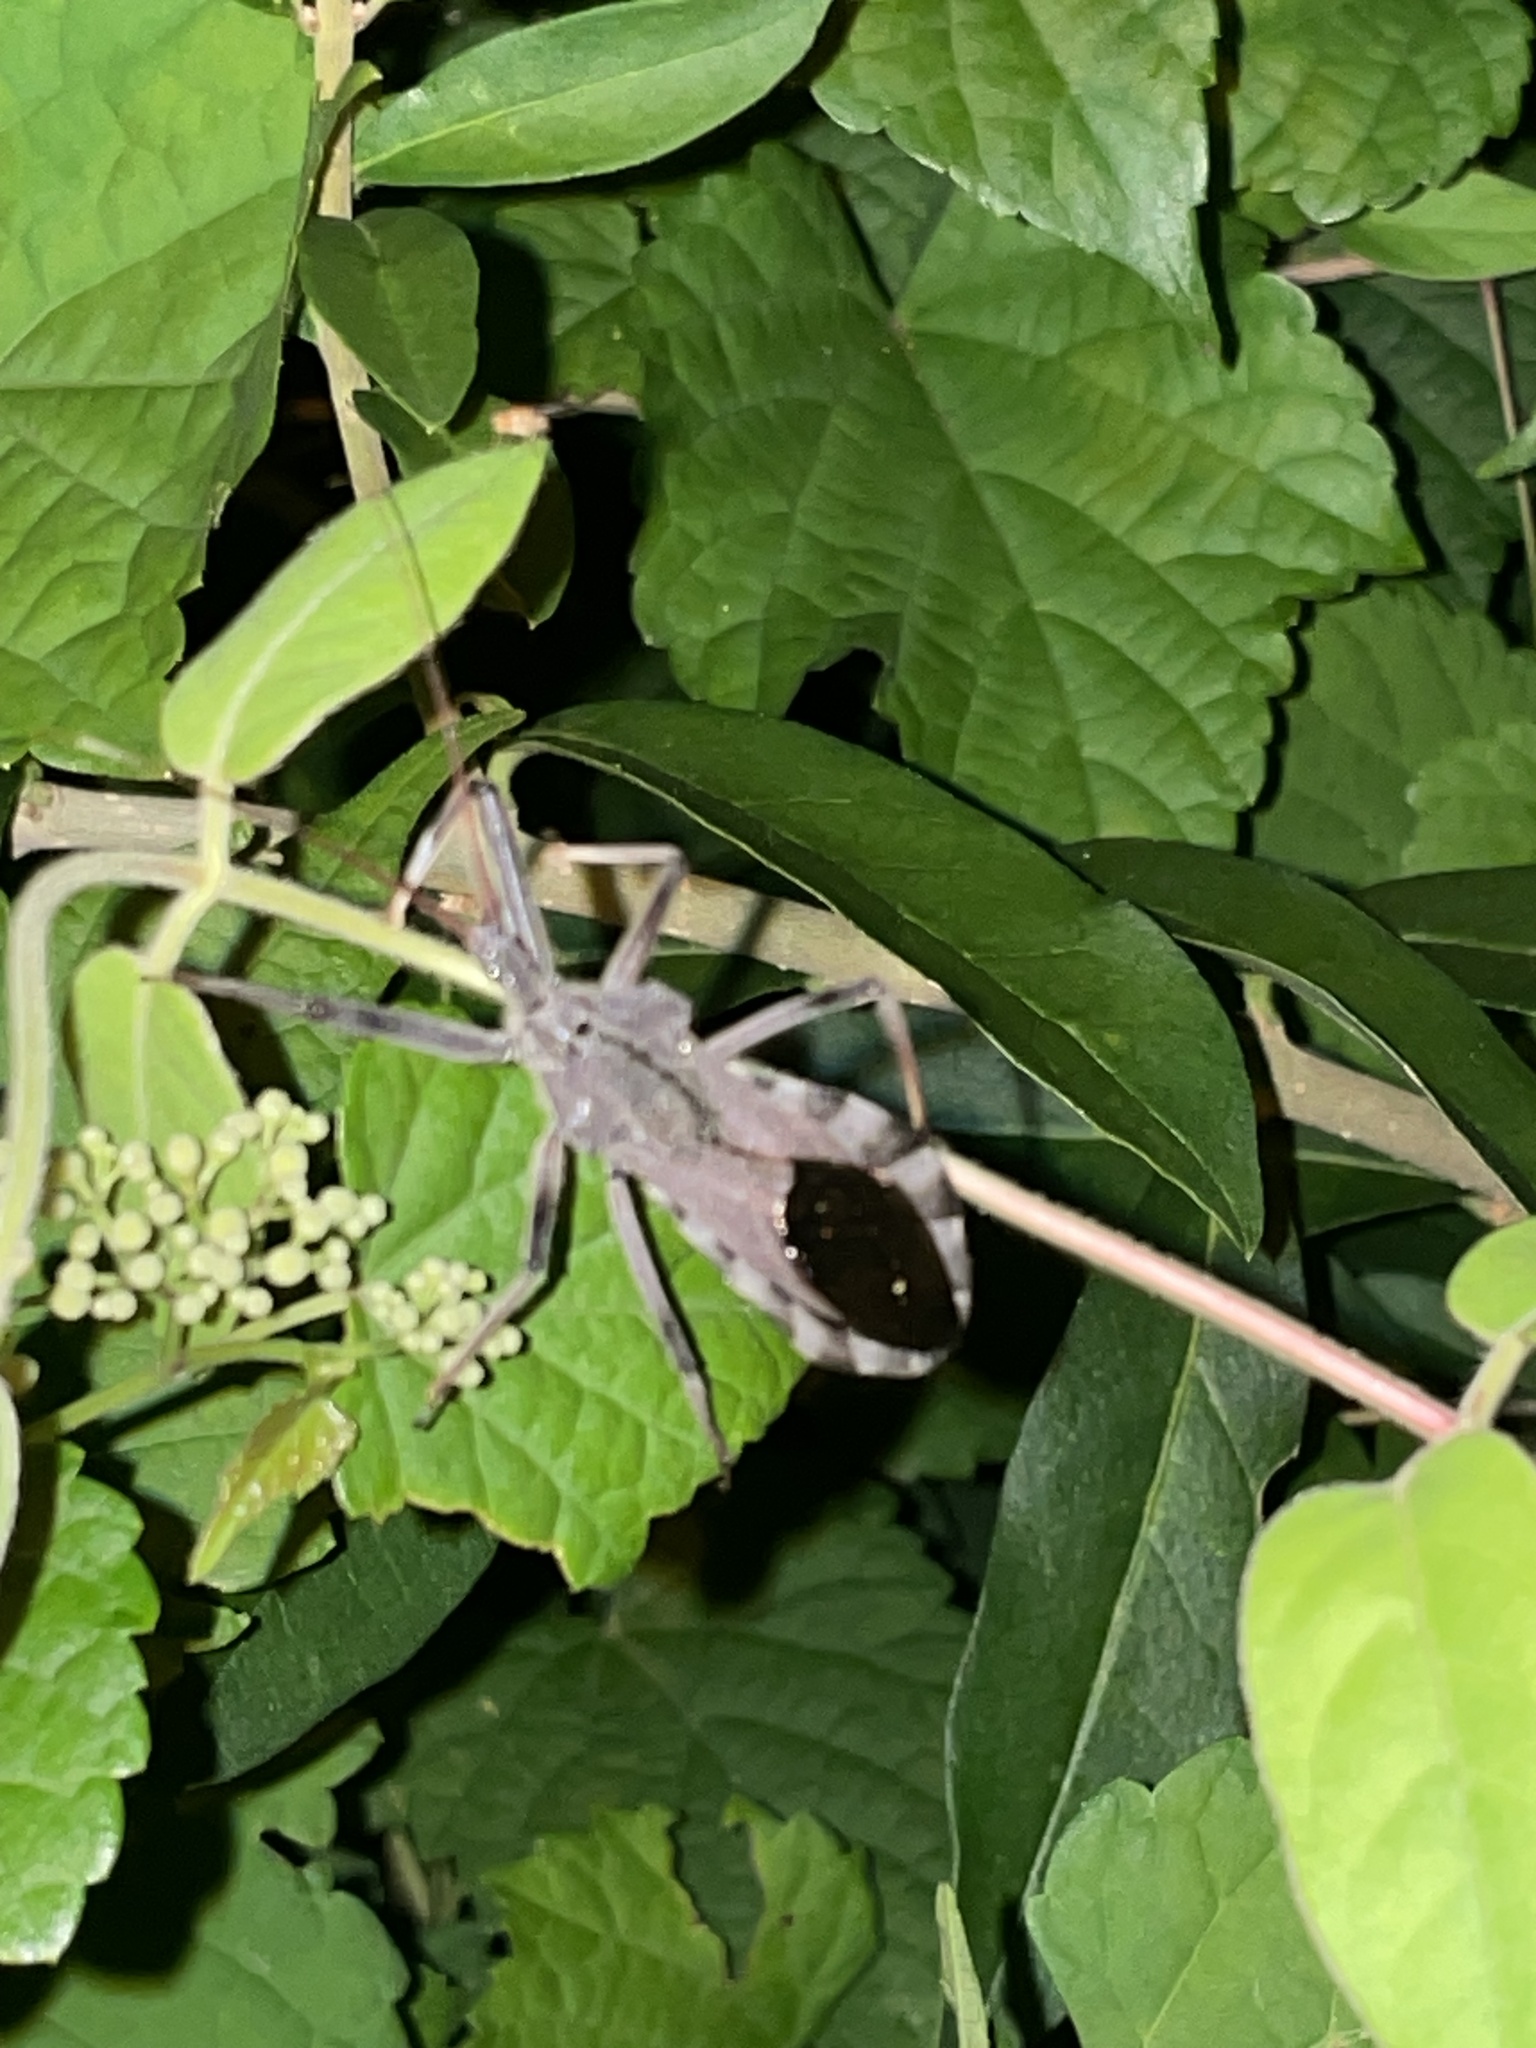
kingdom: Animalia
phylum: Arthropoda
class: Insecta
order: Hemiptera
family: Reduviidae
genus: Arilus
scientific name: Arilus cristatus
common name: North american wheel bug
